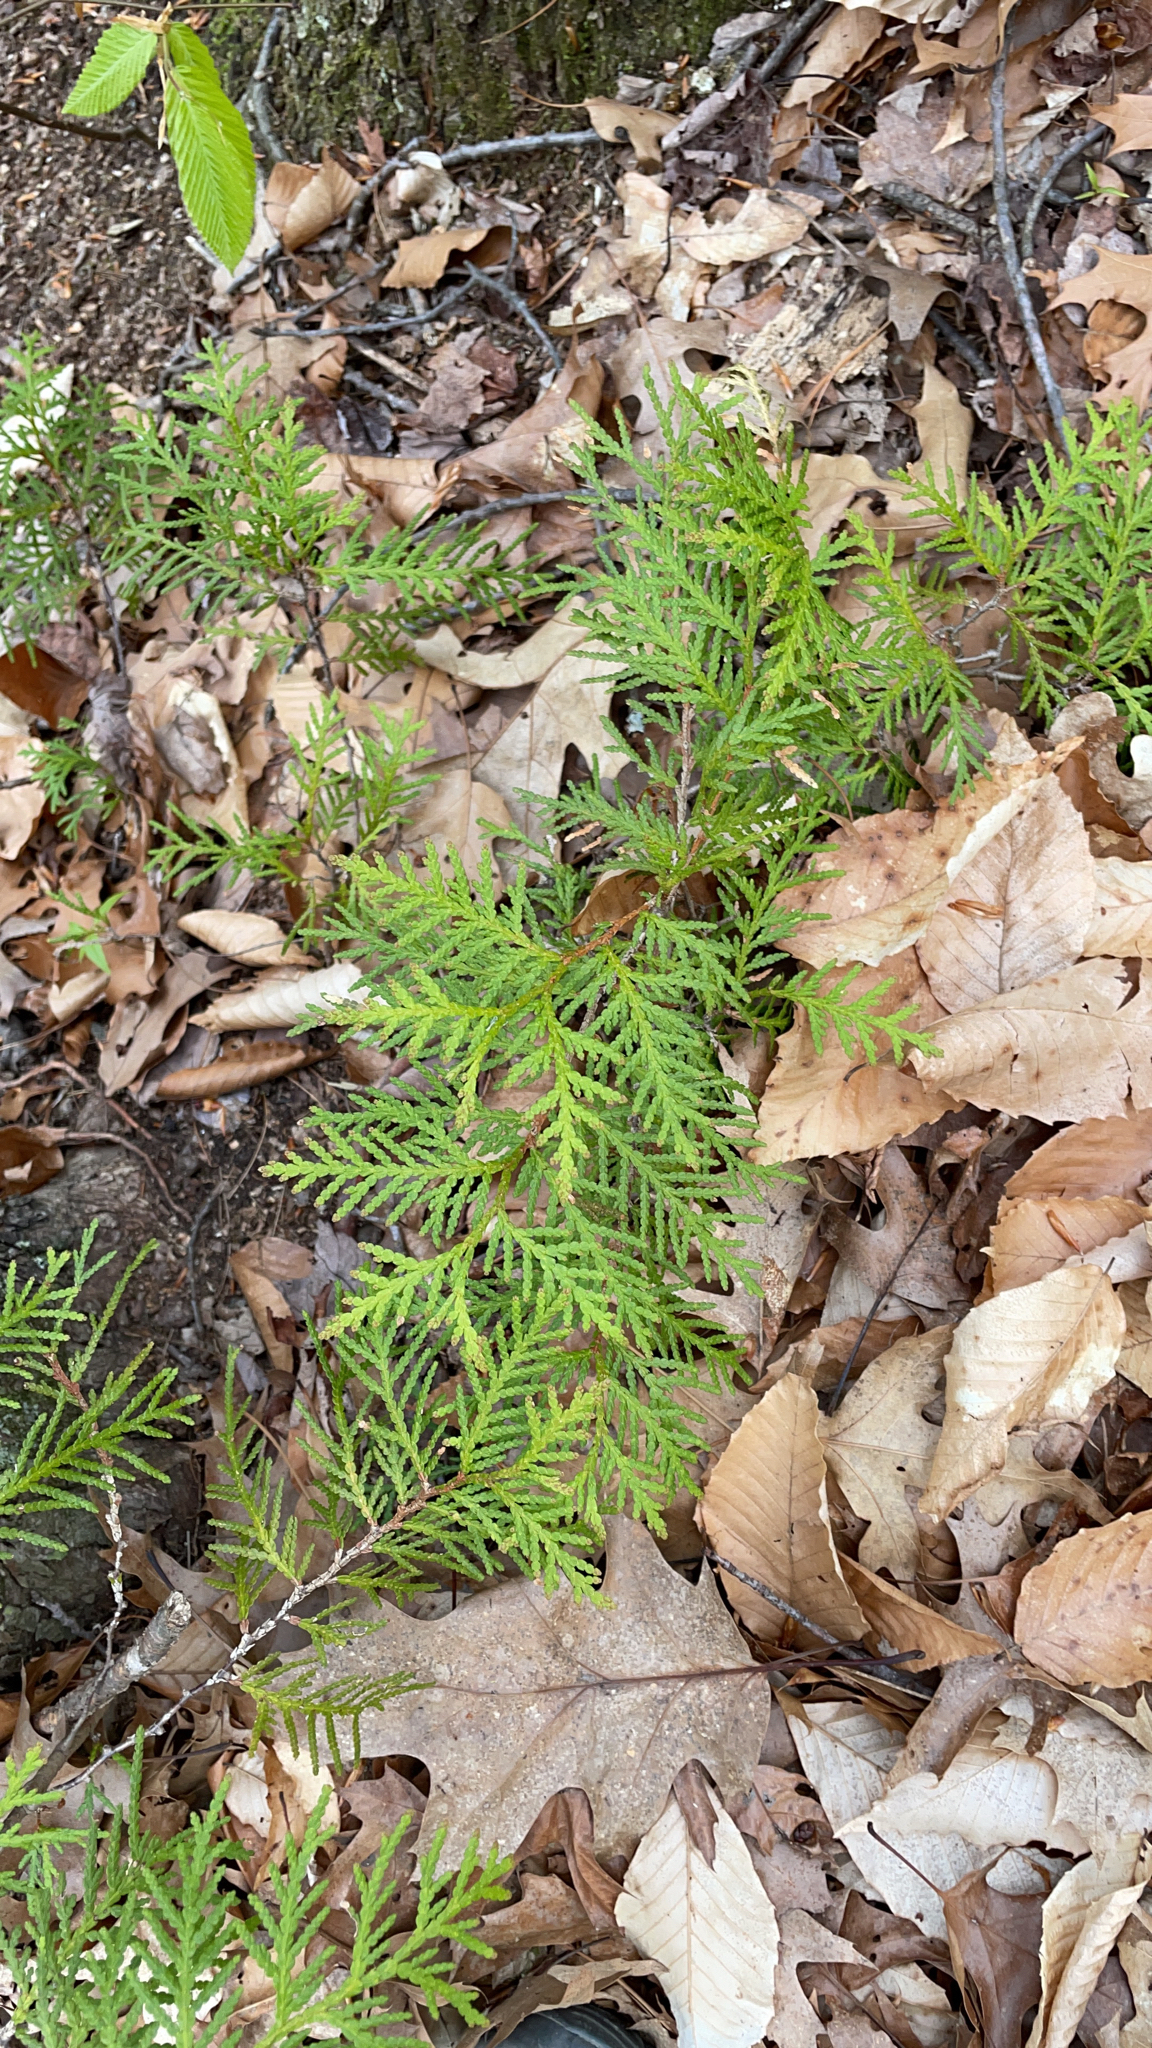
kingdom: Plantae
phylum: Tracheophyta
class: Pinopsida
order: Pinales
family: Cupressaceae
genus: Thuja
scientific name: Thuja occidentalis
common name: Northern white-cedar
